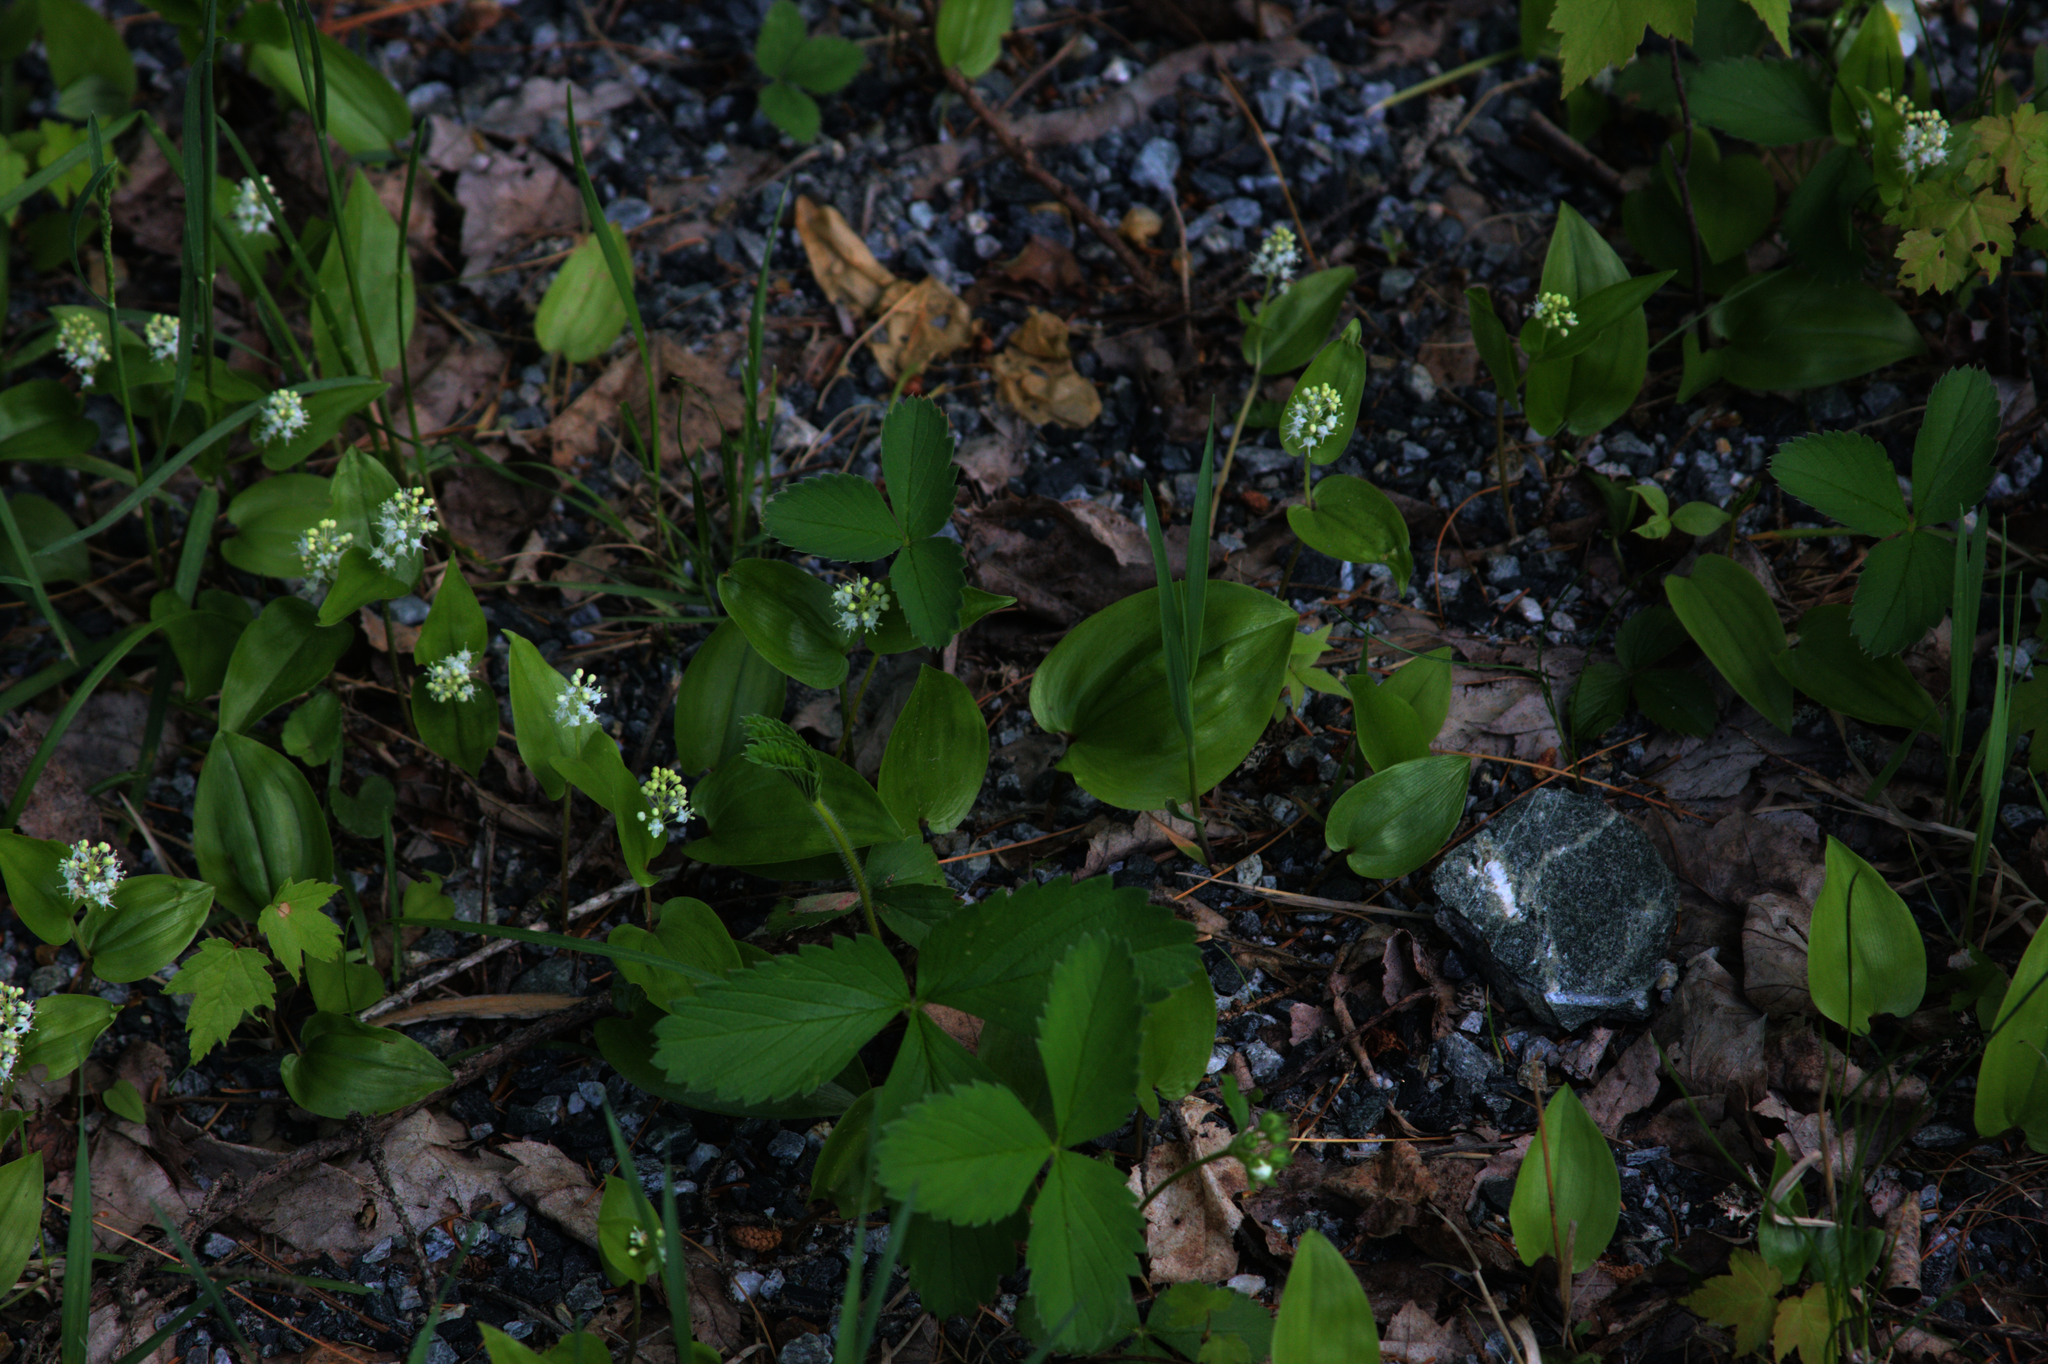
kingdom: Plantae
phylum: Tracheophyta
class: Liliopsida
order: Asparagales
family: Asparagaceae
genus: Maianthemum
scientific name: Maianthemum canadense
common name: False lily-of-the-valley
